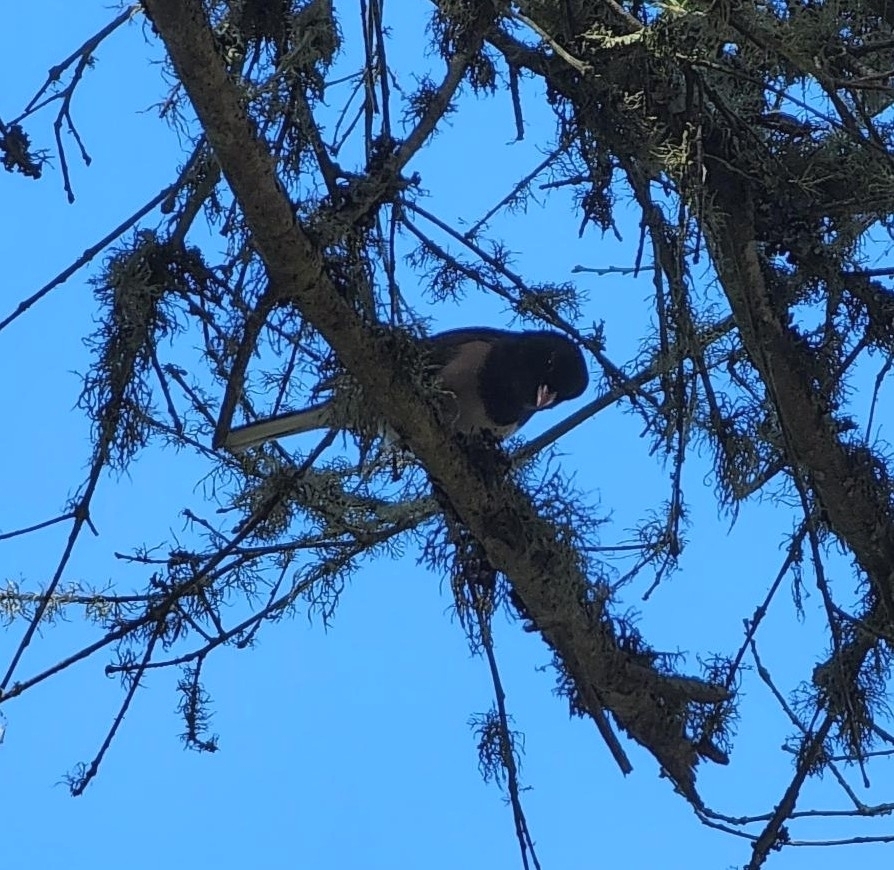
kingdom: Animalia
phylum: Chordata
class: Aves
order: Passeriformes
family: Passerellidae
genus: Junco
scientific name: Junco hyemalis
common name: Dark-eyed junco
